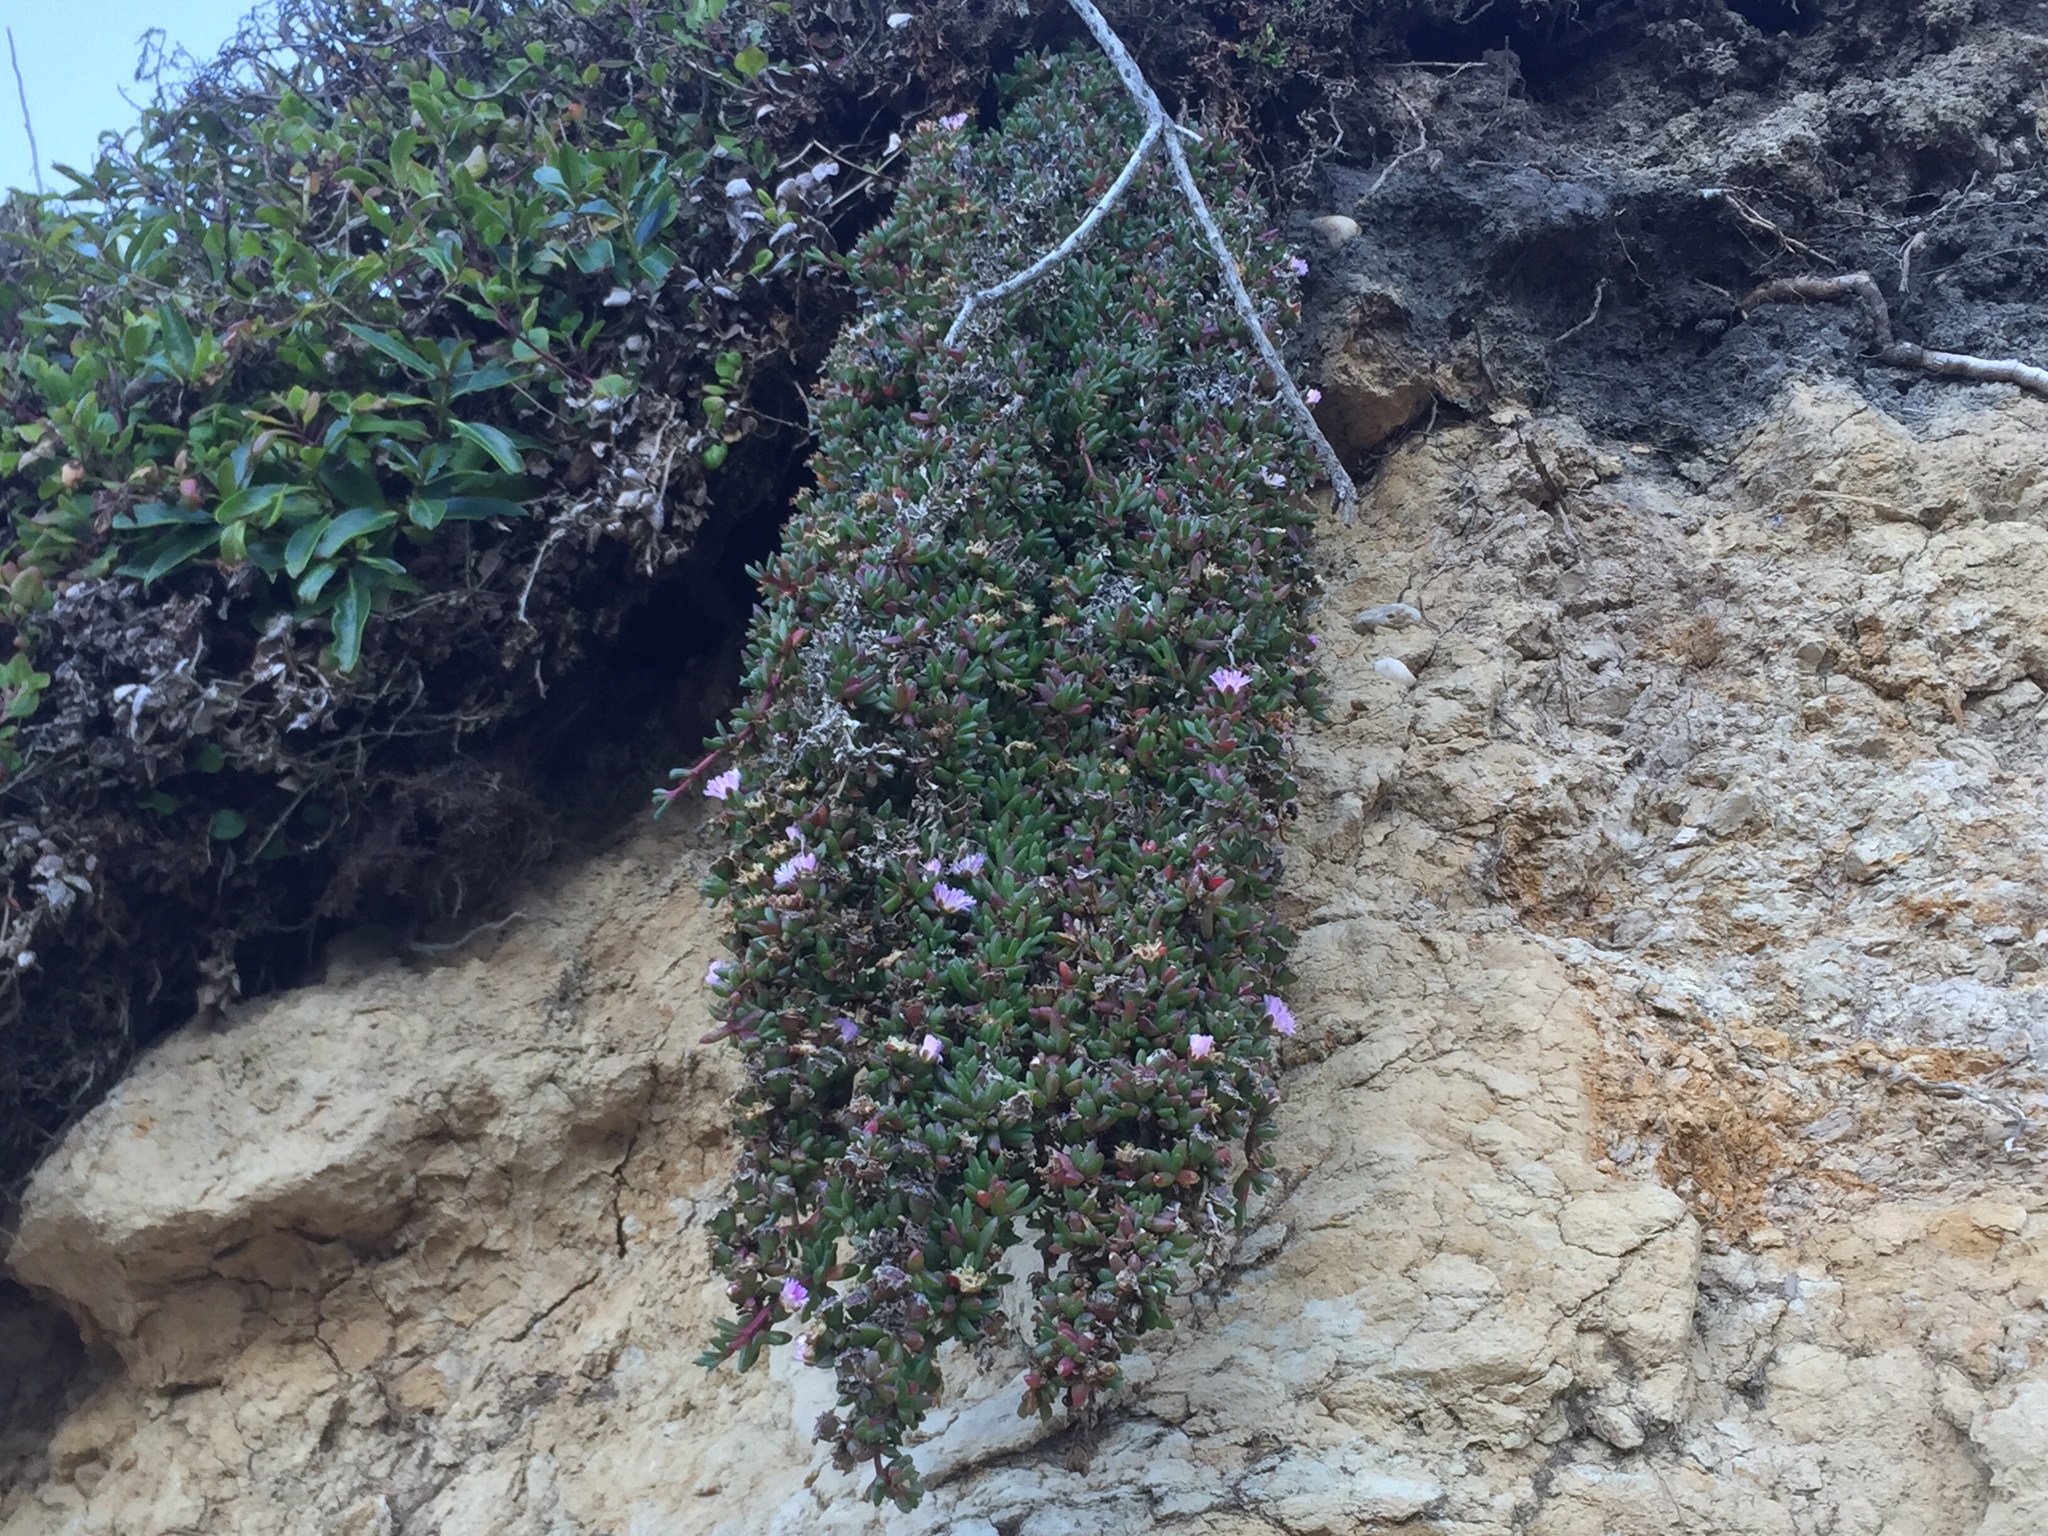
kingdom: Plantae
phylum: Tracheophyta
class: Magnoliopsida
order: Caryophyllales
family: Aizoaceae
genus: Disphyma
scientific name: Disphyma australe
